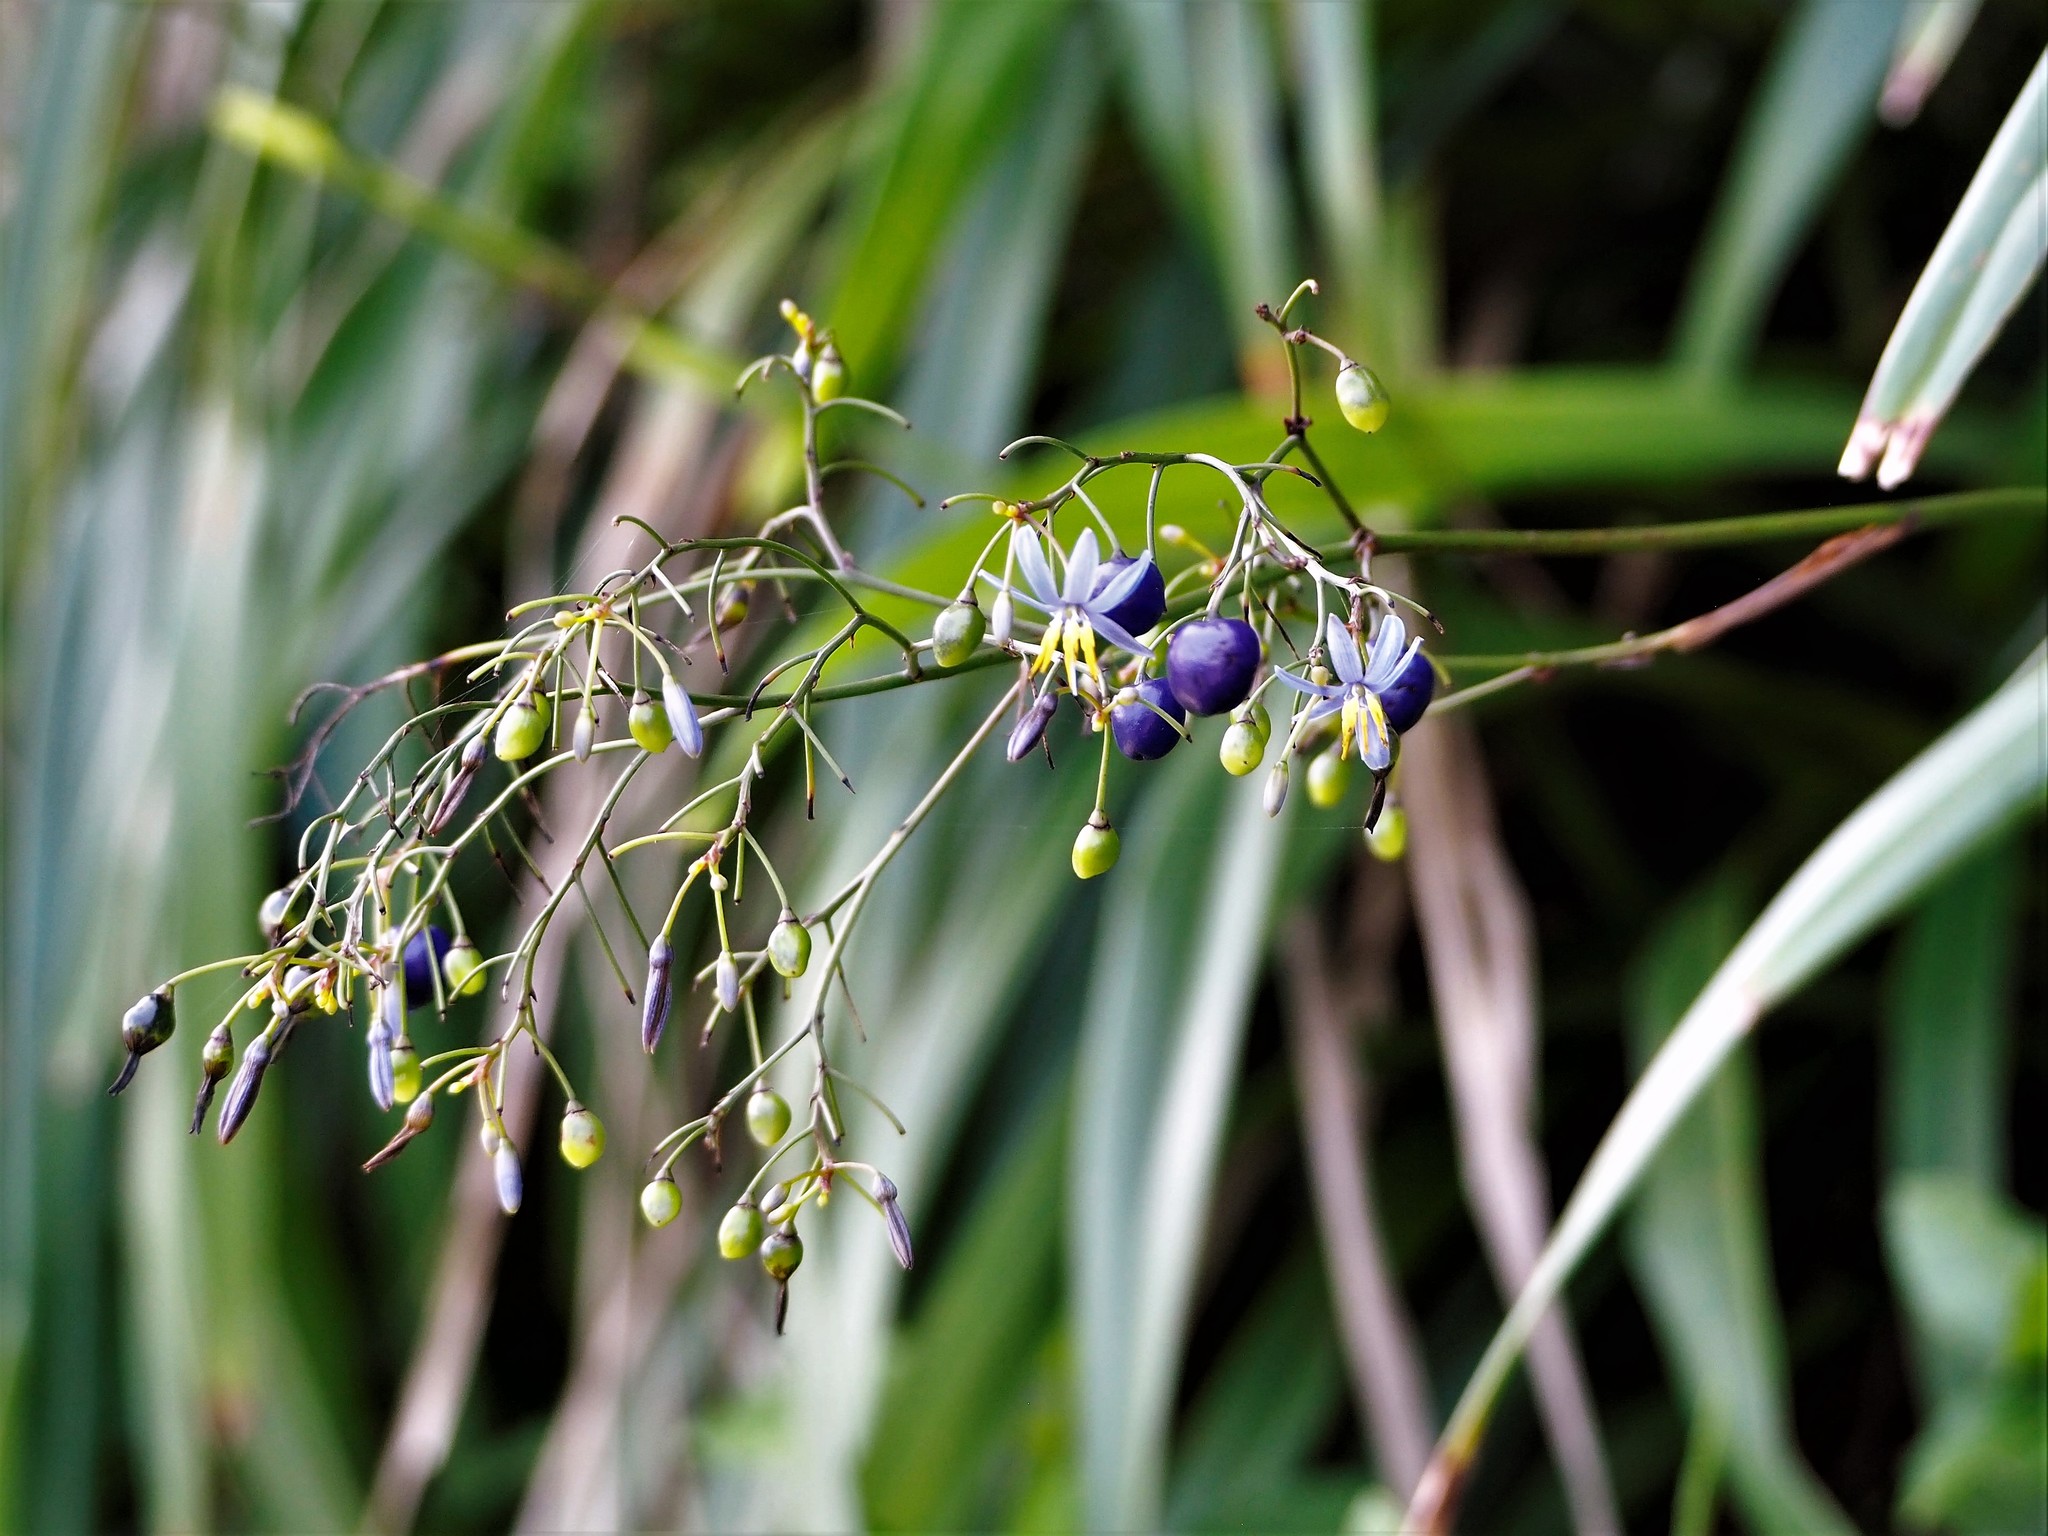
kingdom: Plantae
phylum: Tracheophyta
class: Liliopsida
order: Asparagales
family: Asphodelaceae
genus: Dianella
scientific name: Dianella ensifolia
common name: New zealand lilyplant
